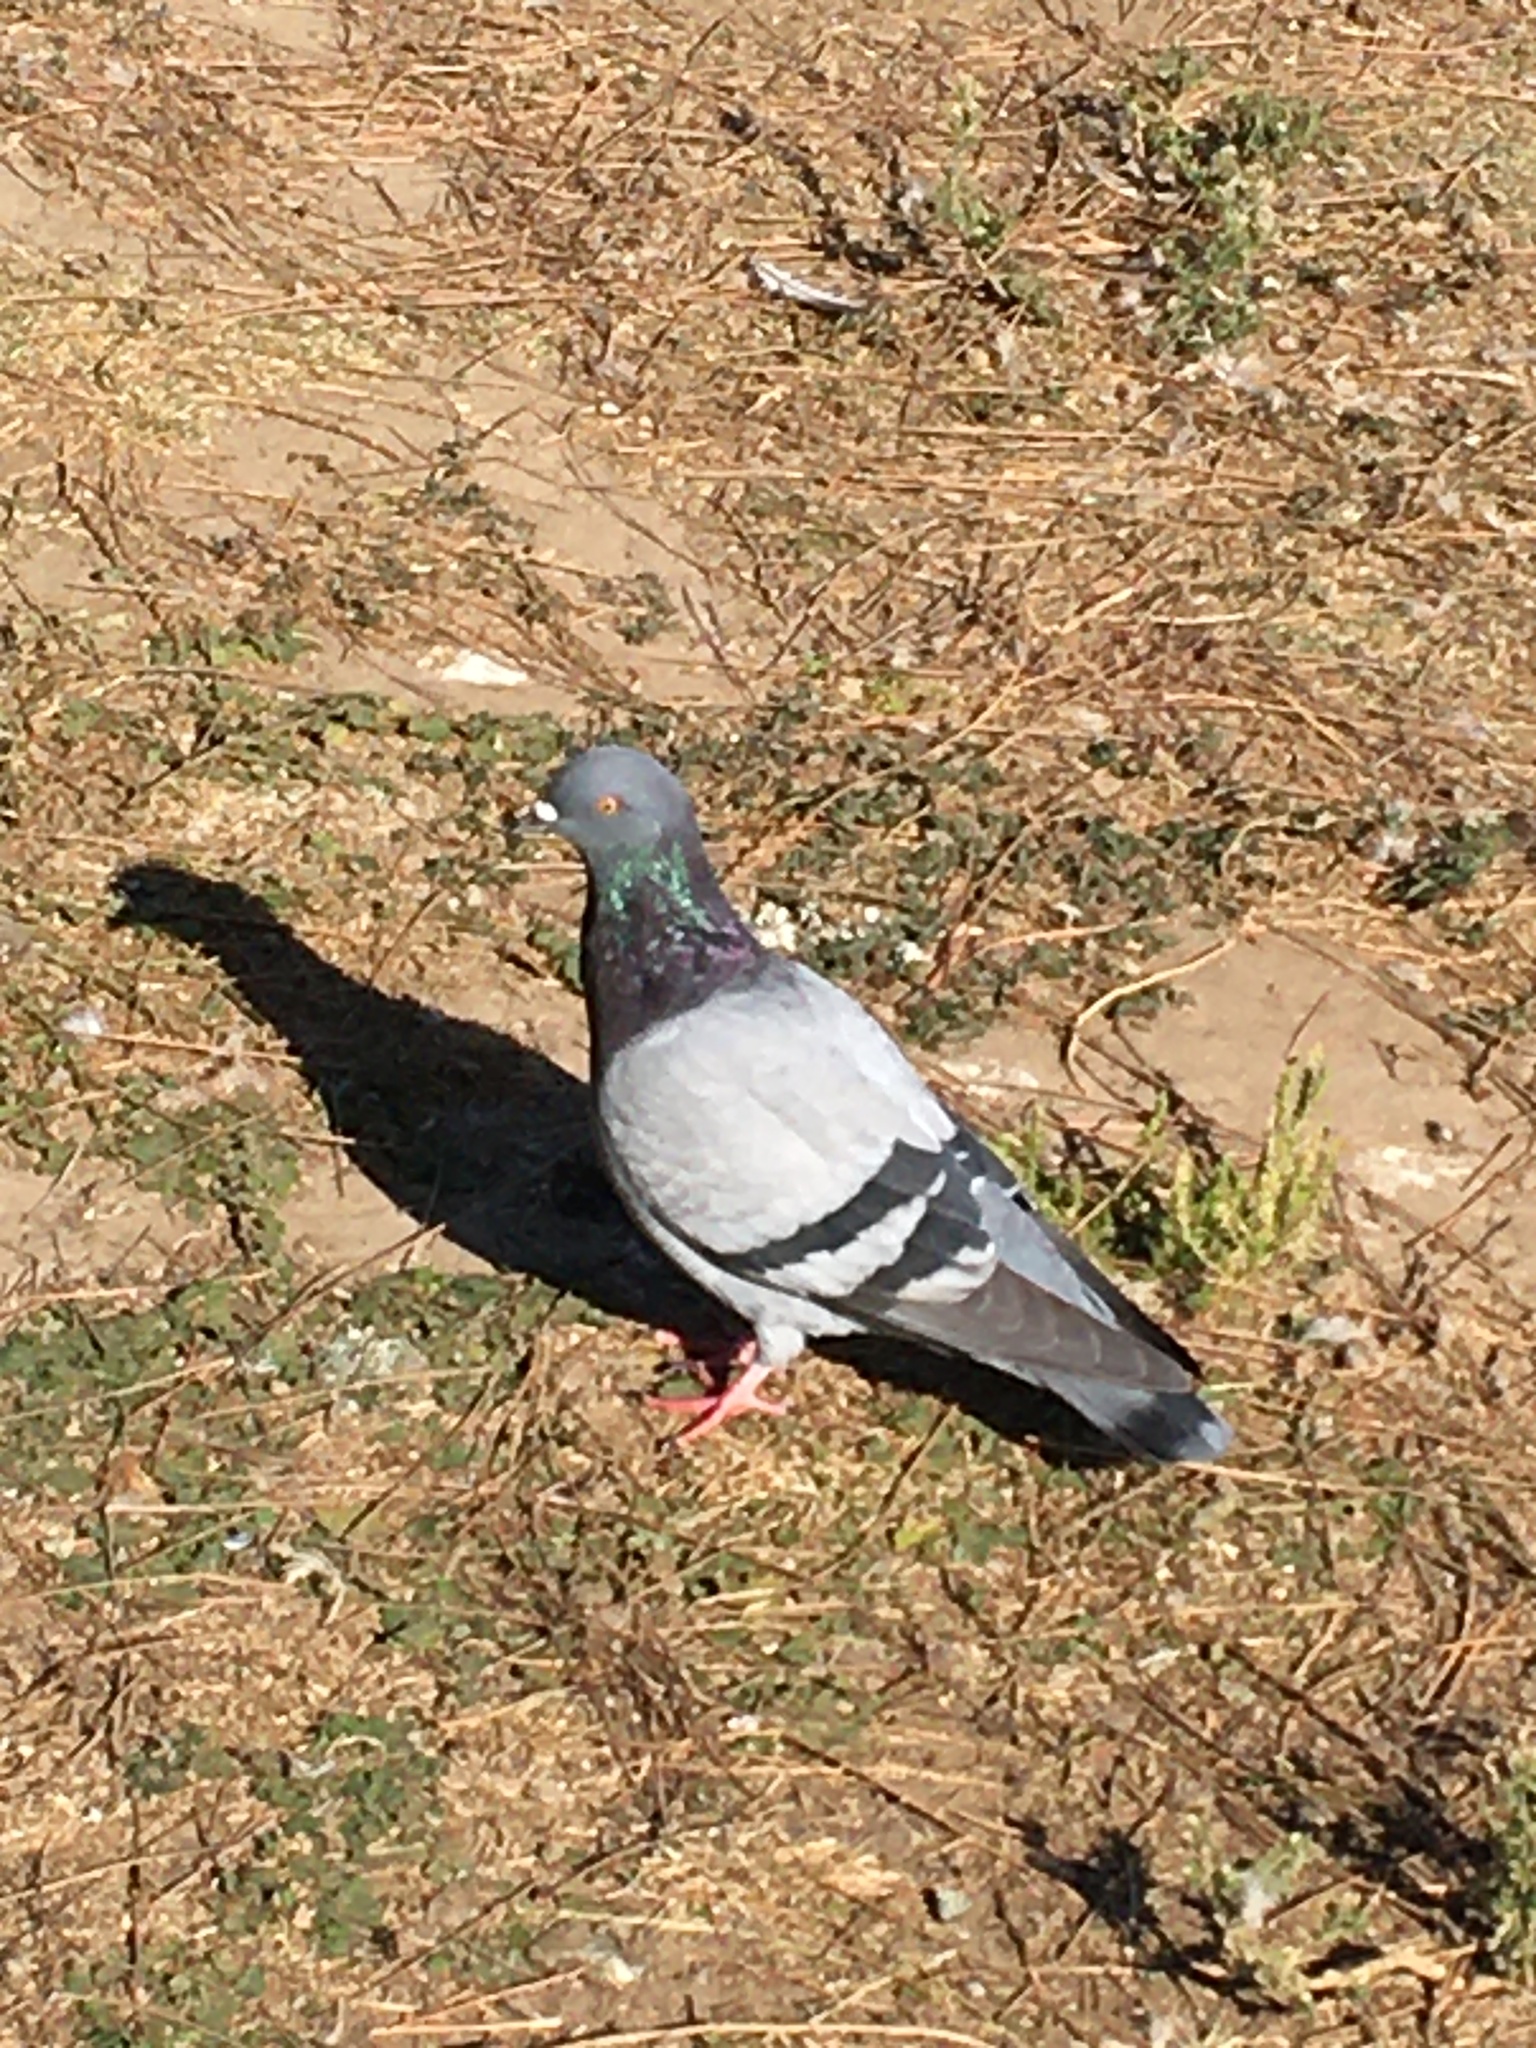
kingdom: Animalia
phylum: Chordata
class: Aves
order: Columbiformes
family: Columbidae
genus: Columba
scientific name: Columba livia
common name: Rock pigeon
